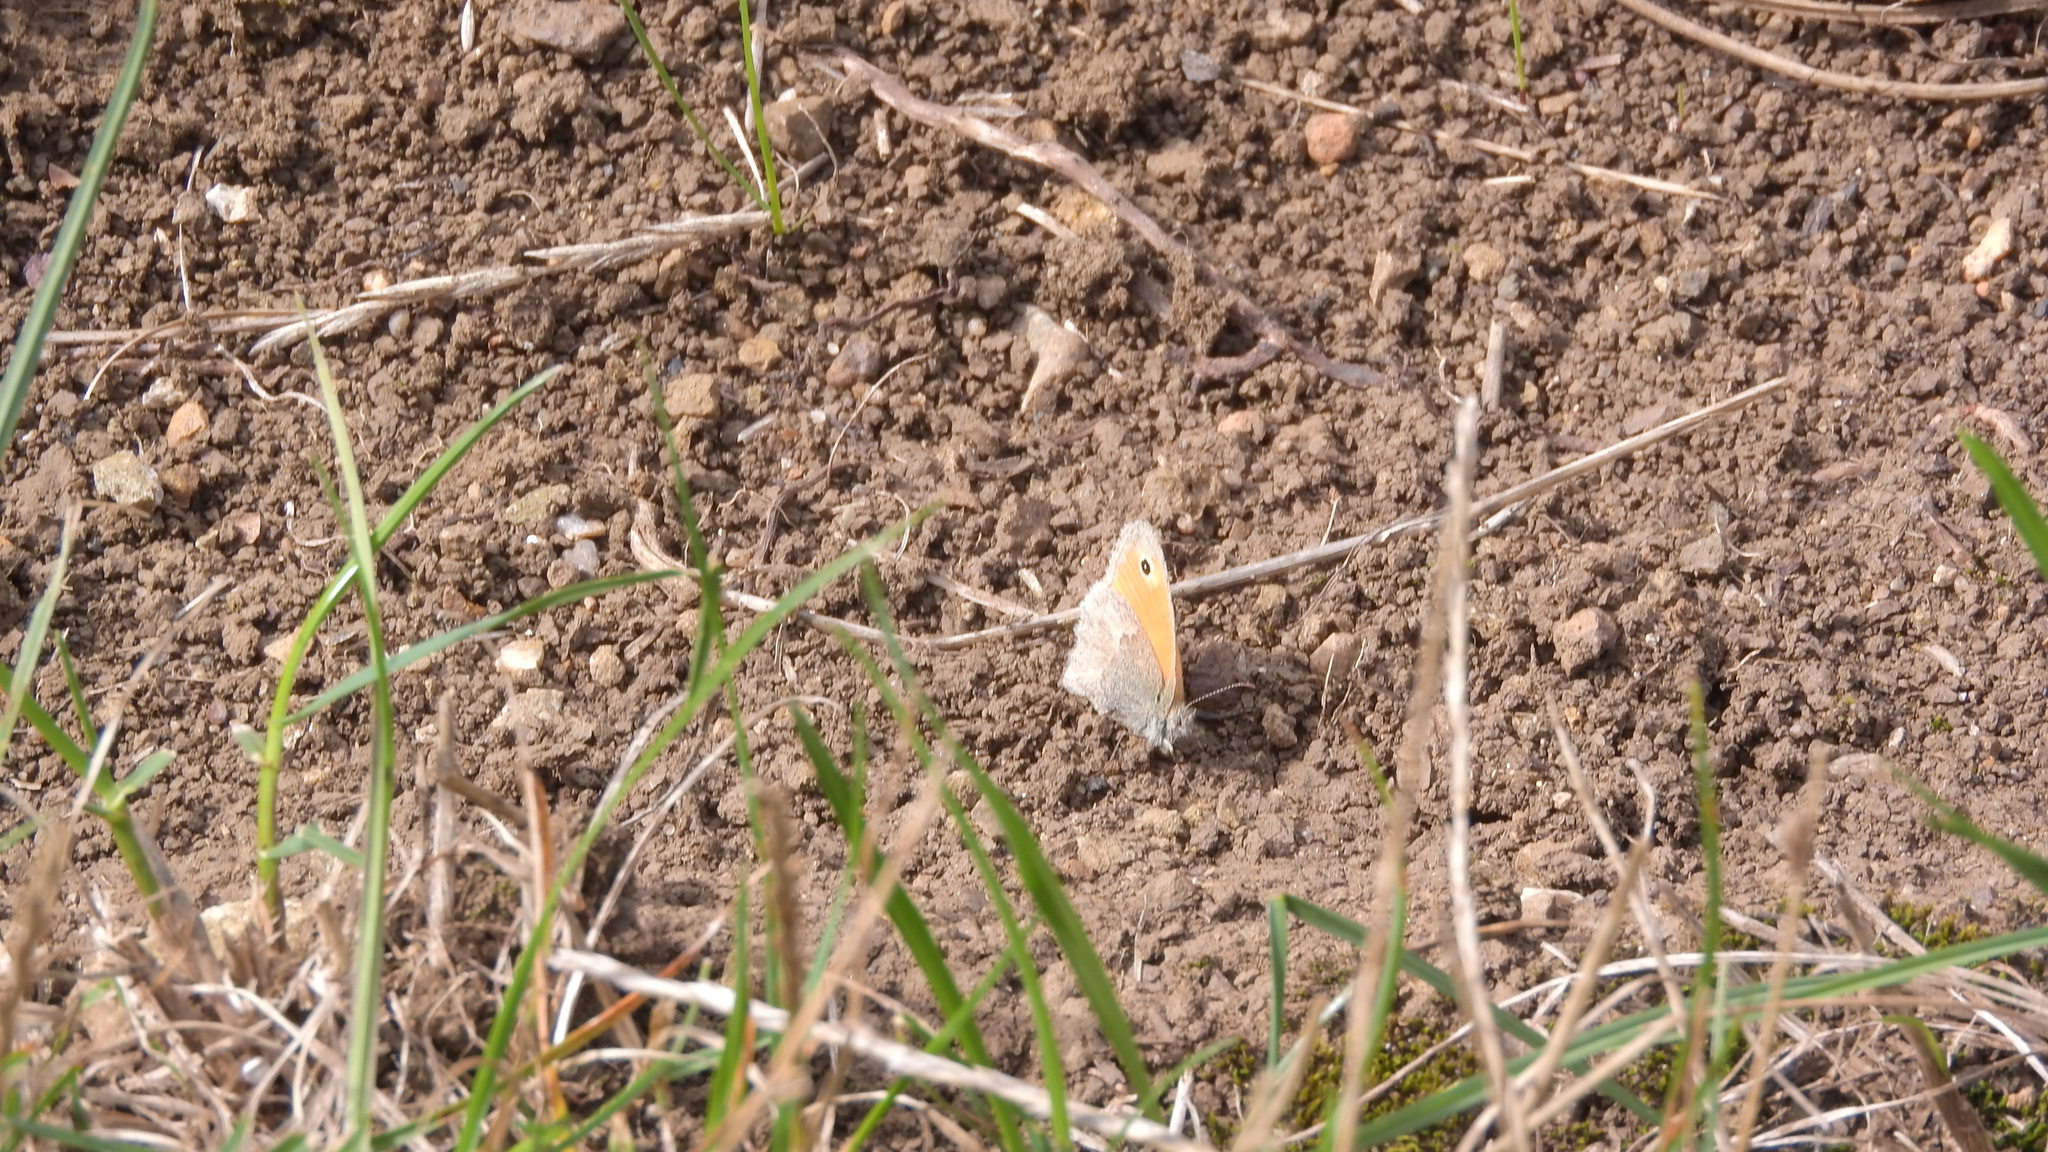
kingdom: Animalia
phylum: Arthropoda
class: Insecta
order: Lepidoptera
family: Nymphalidae
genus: Coenonympha
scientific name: Coenonympha pamphilus
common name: Small heath
